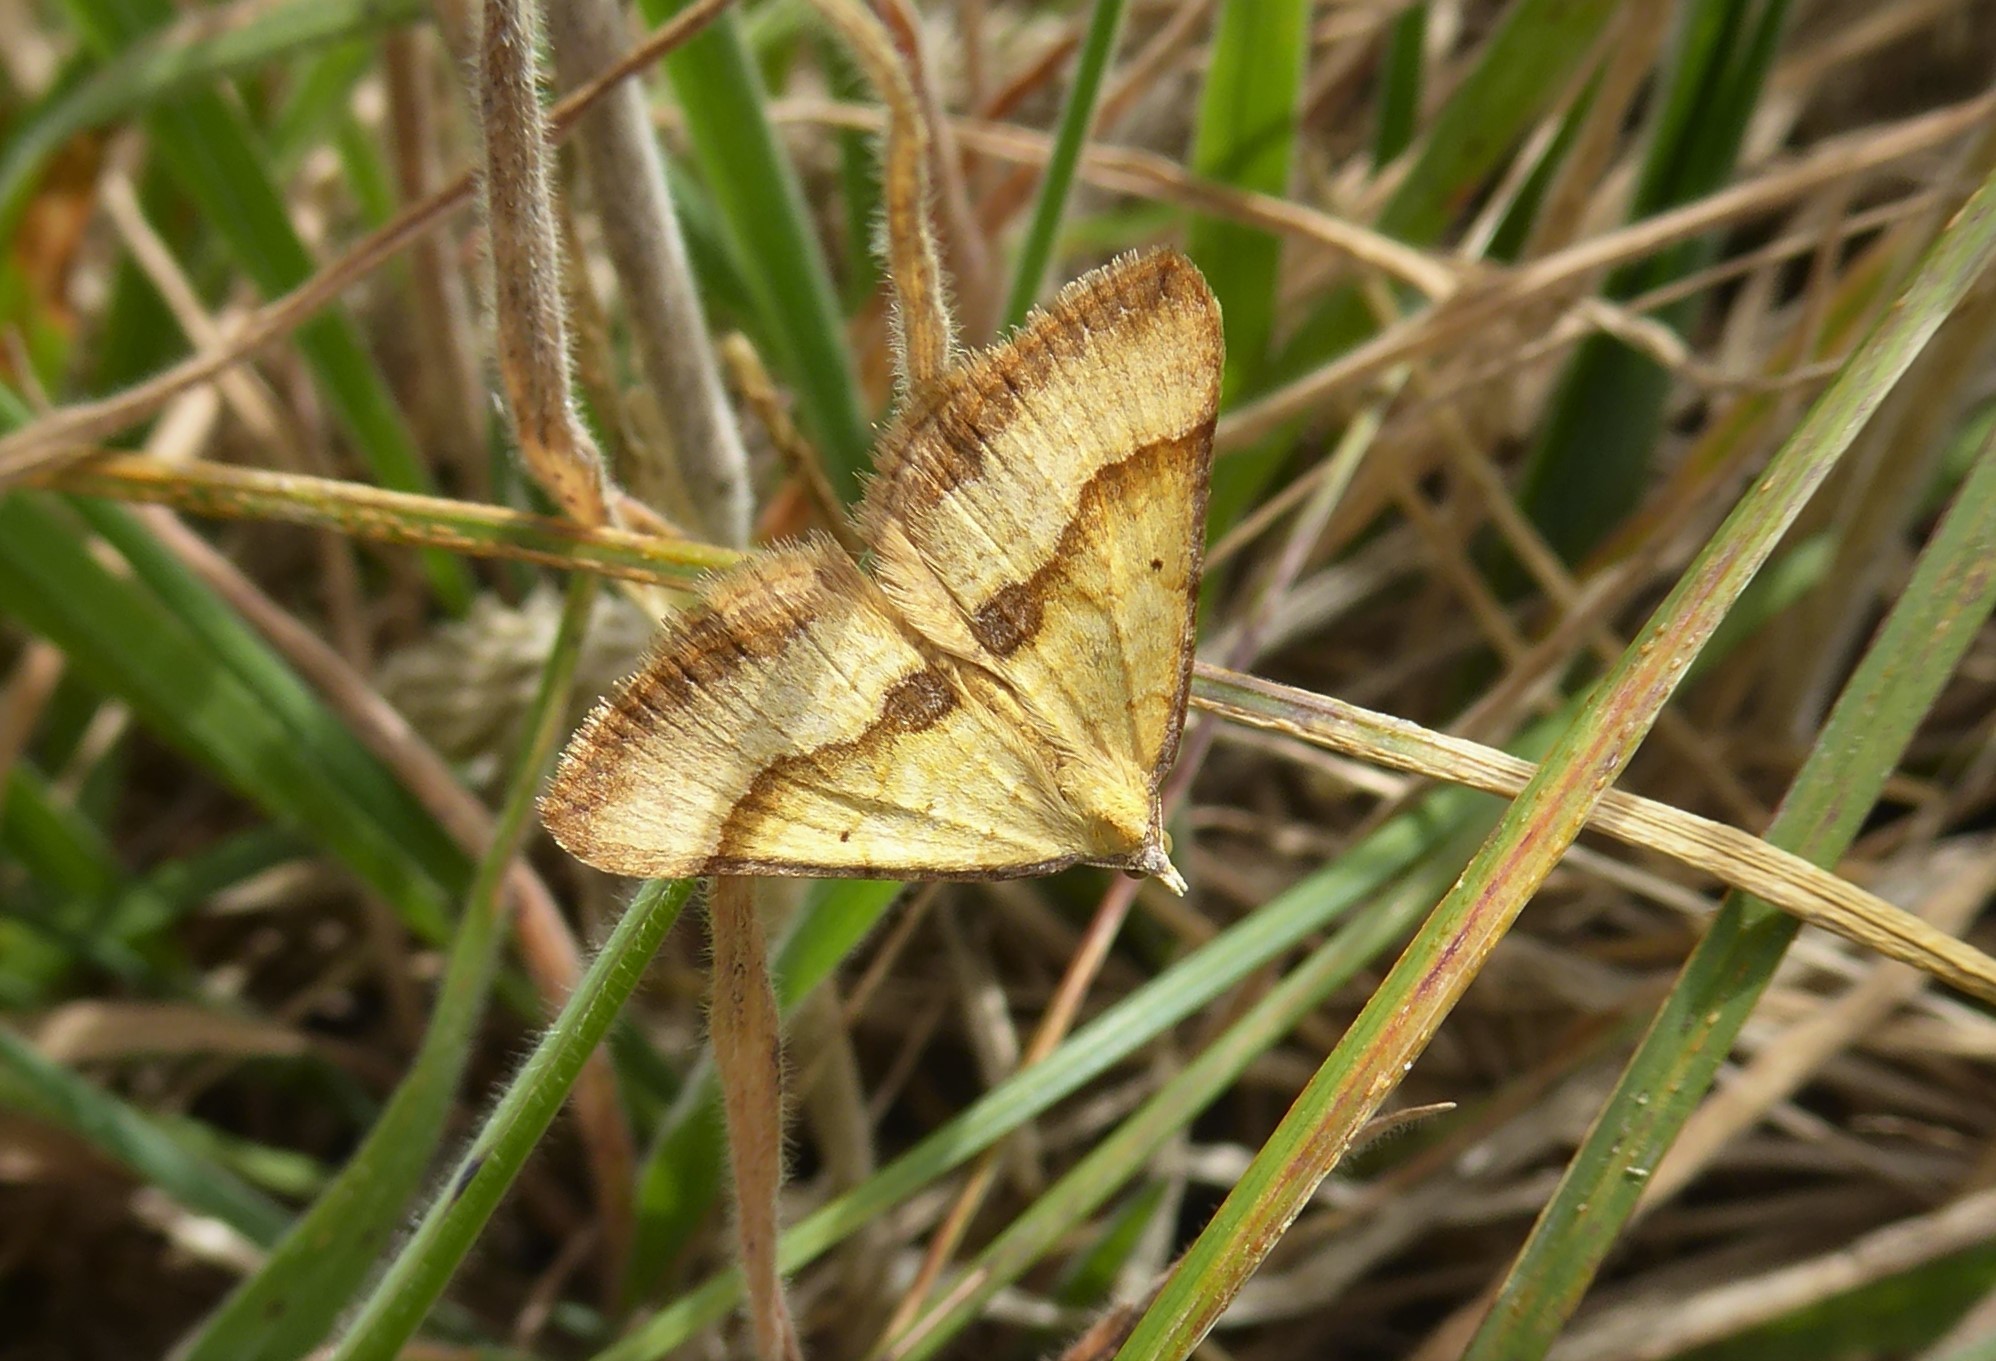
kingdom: Animalia
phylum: Arthropoda
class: Insecta
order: Lepidoptera
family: Geometridae
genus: Anachloris
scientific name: Anachloris subochraria
